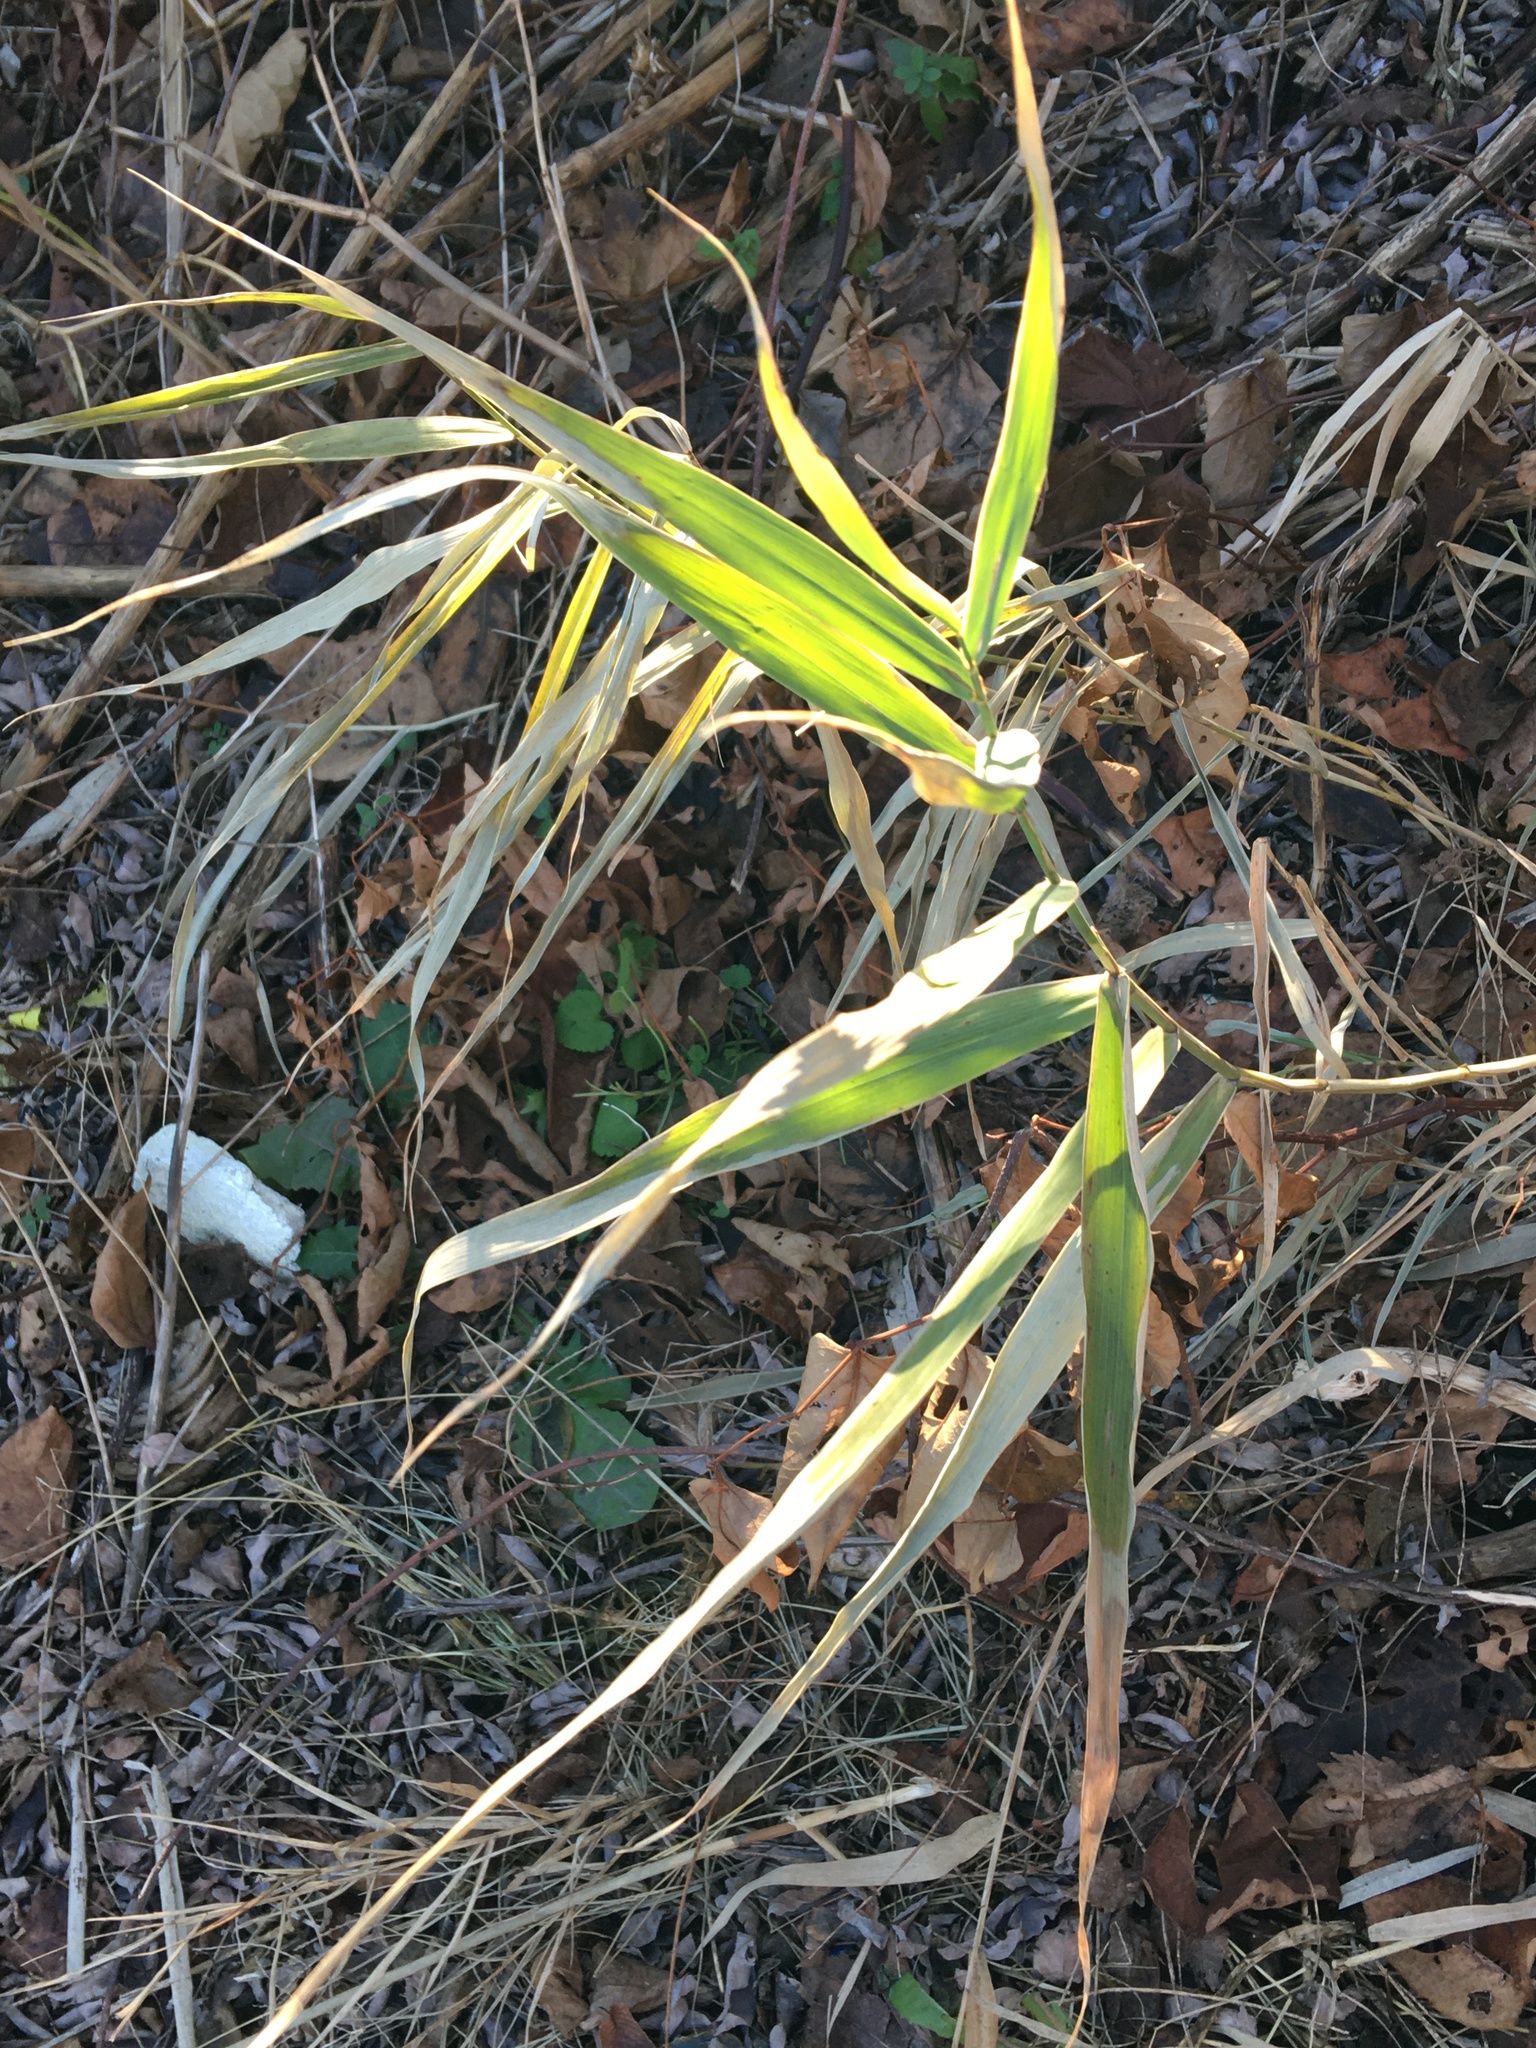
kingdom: Plantae
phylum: Tracheophyta
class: Liliopsida
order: Poales
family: Poaceae
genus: Phragmites
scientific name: Phragmites australis
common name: Common reed
